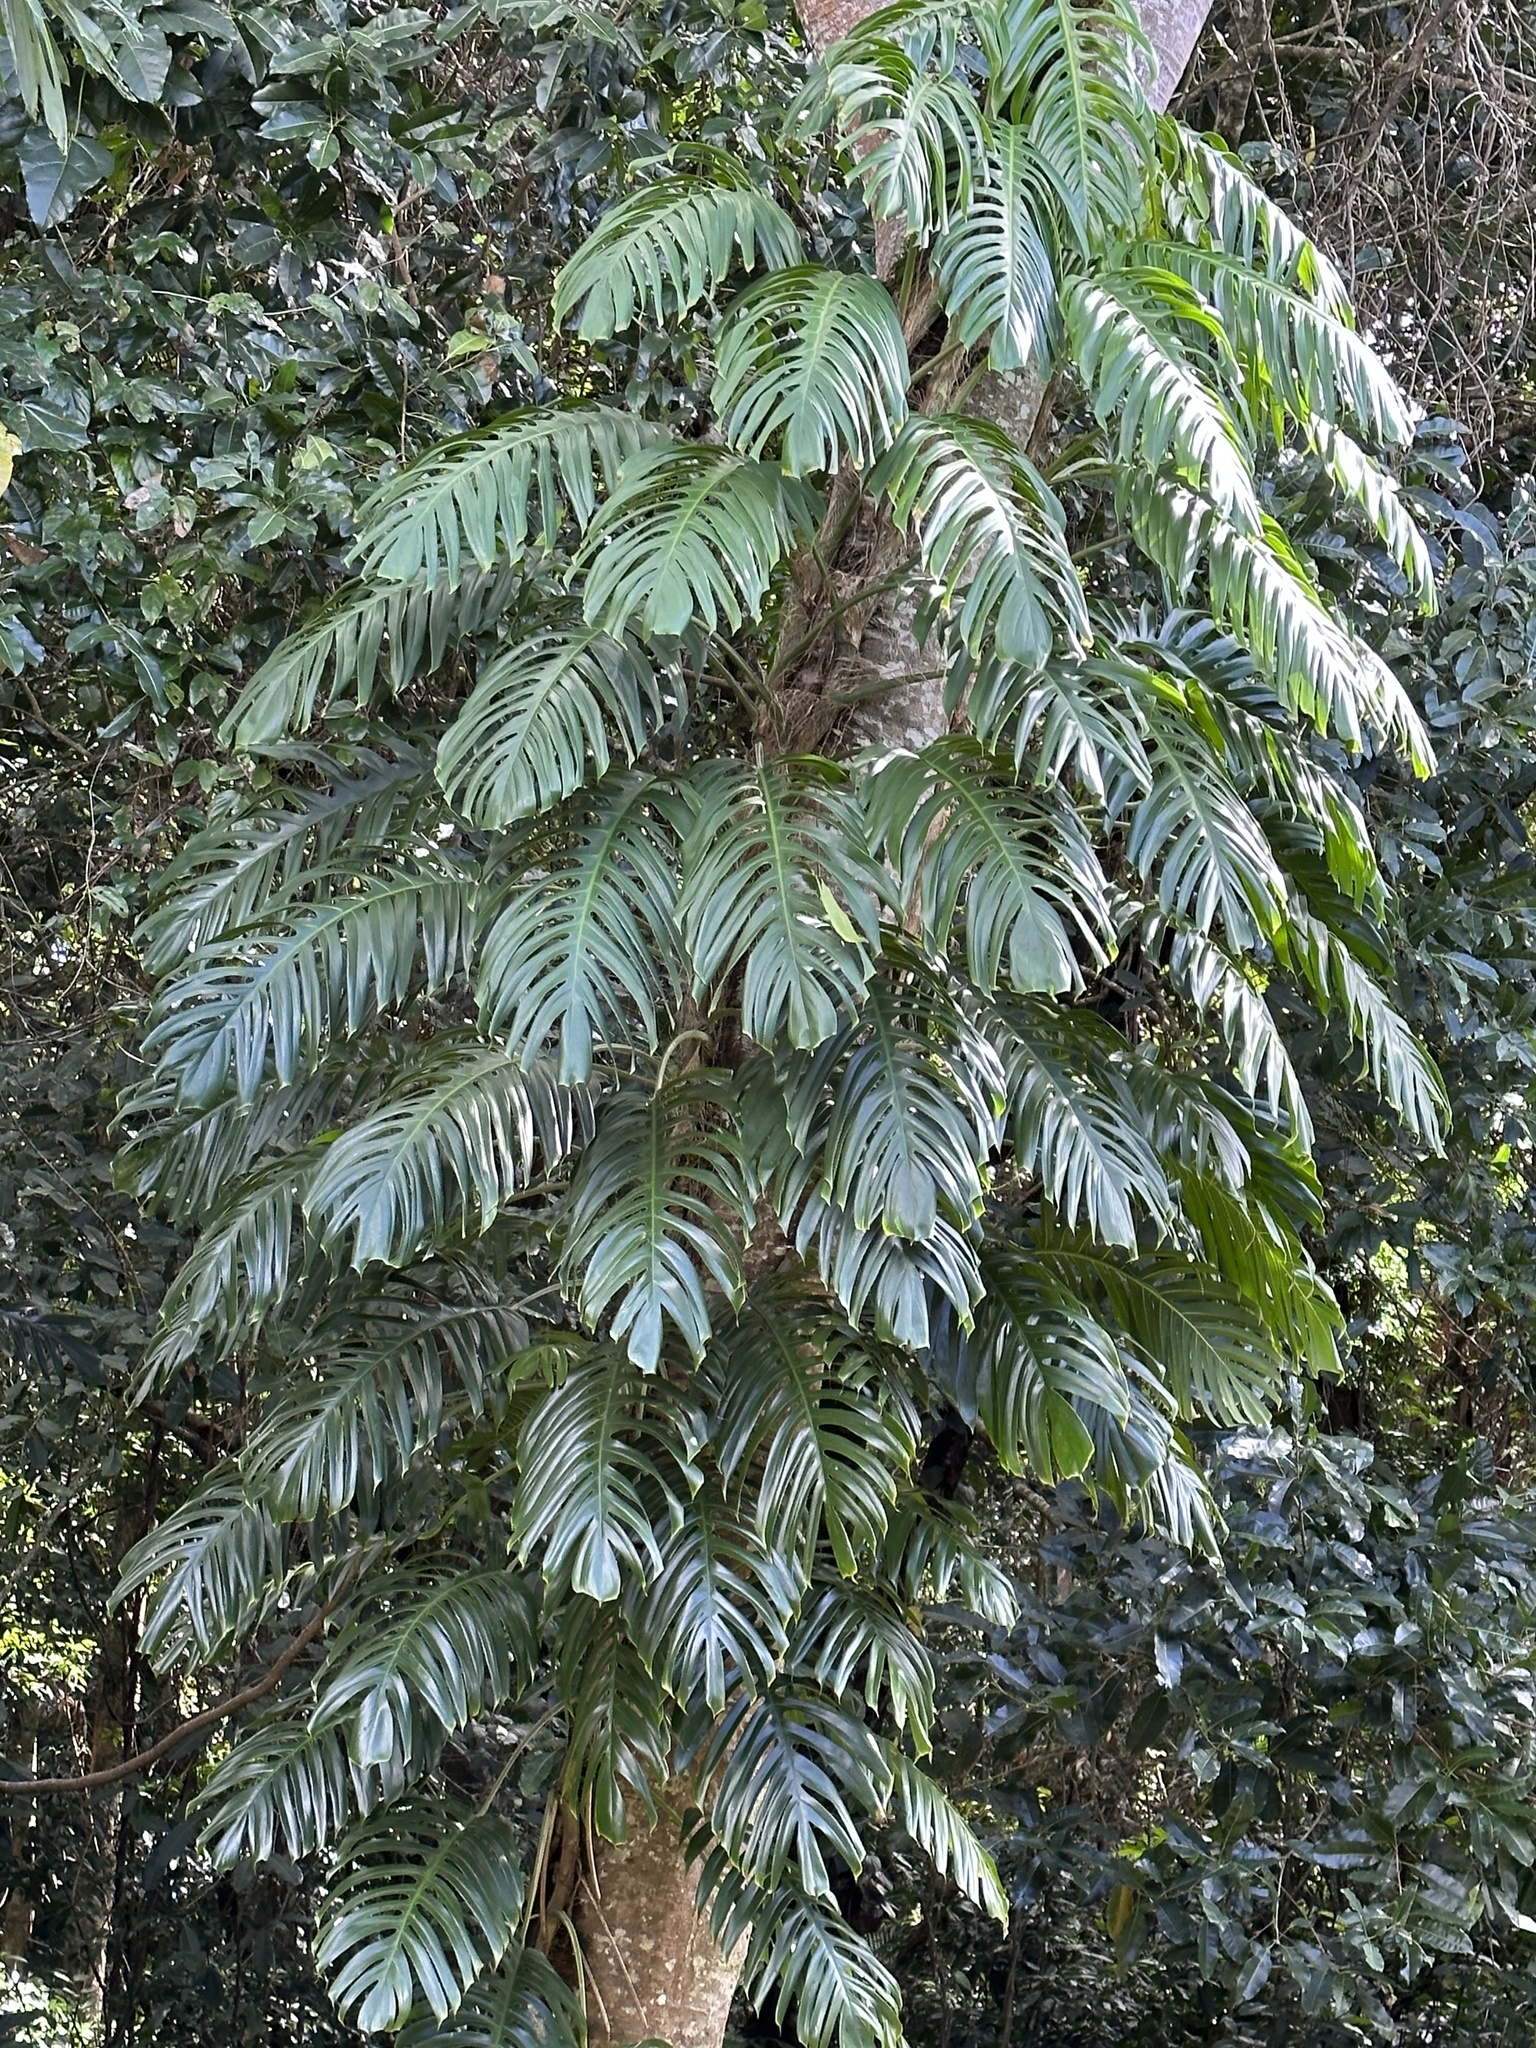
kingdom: Plantae
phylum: Tracheophyta
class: Liliopsida
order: Alismatales
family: Araceae
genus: Epipremnum
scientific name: Epipremnum pinnatum
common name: Centipede tongavine
